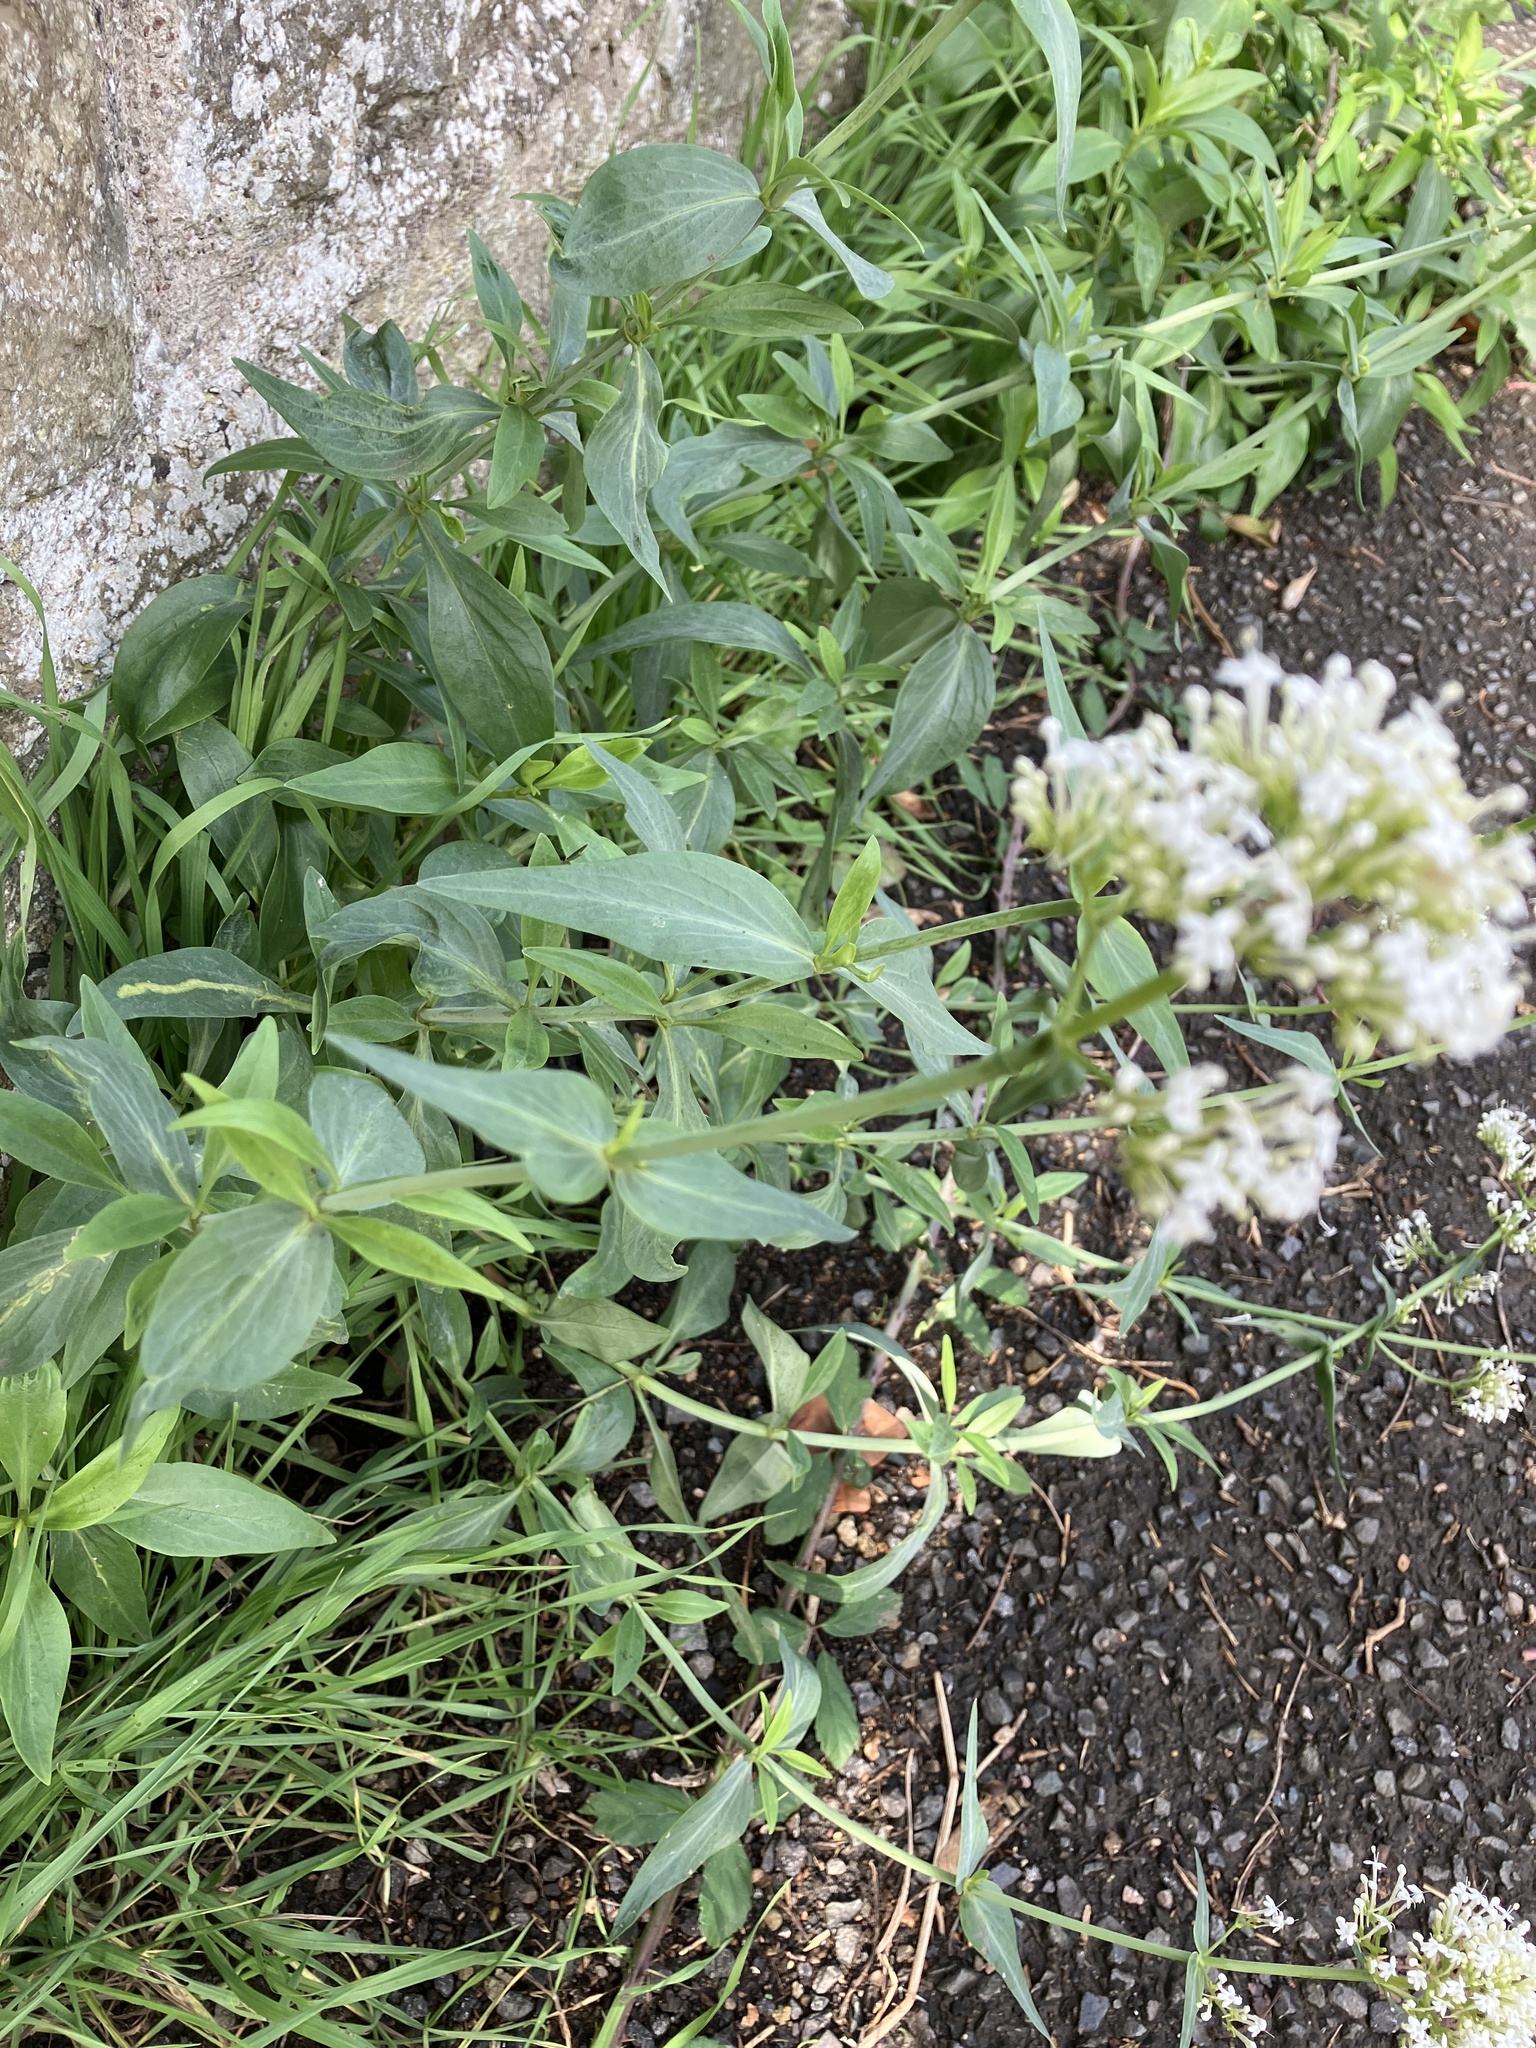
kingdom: Plantae
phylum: Tracheophyta
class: Magnoliopsida
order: Dipsacales
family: Caprifoliaceae
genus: Centranthus
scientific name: Centranthus ruber
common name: Red valerian
